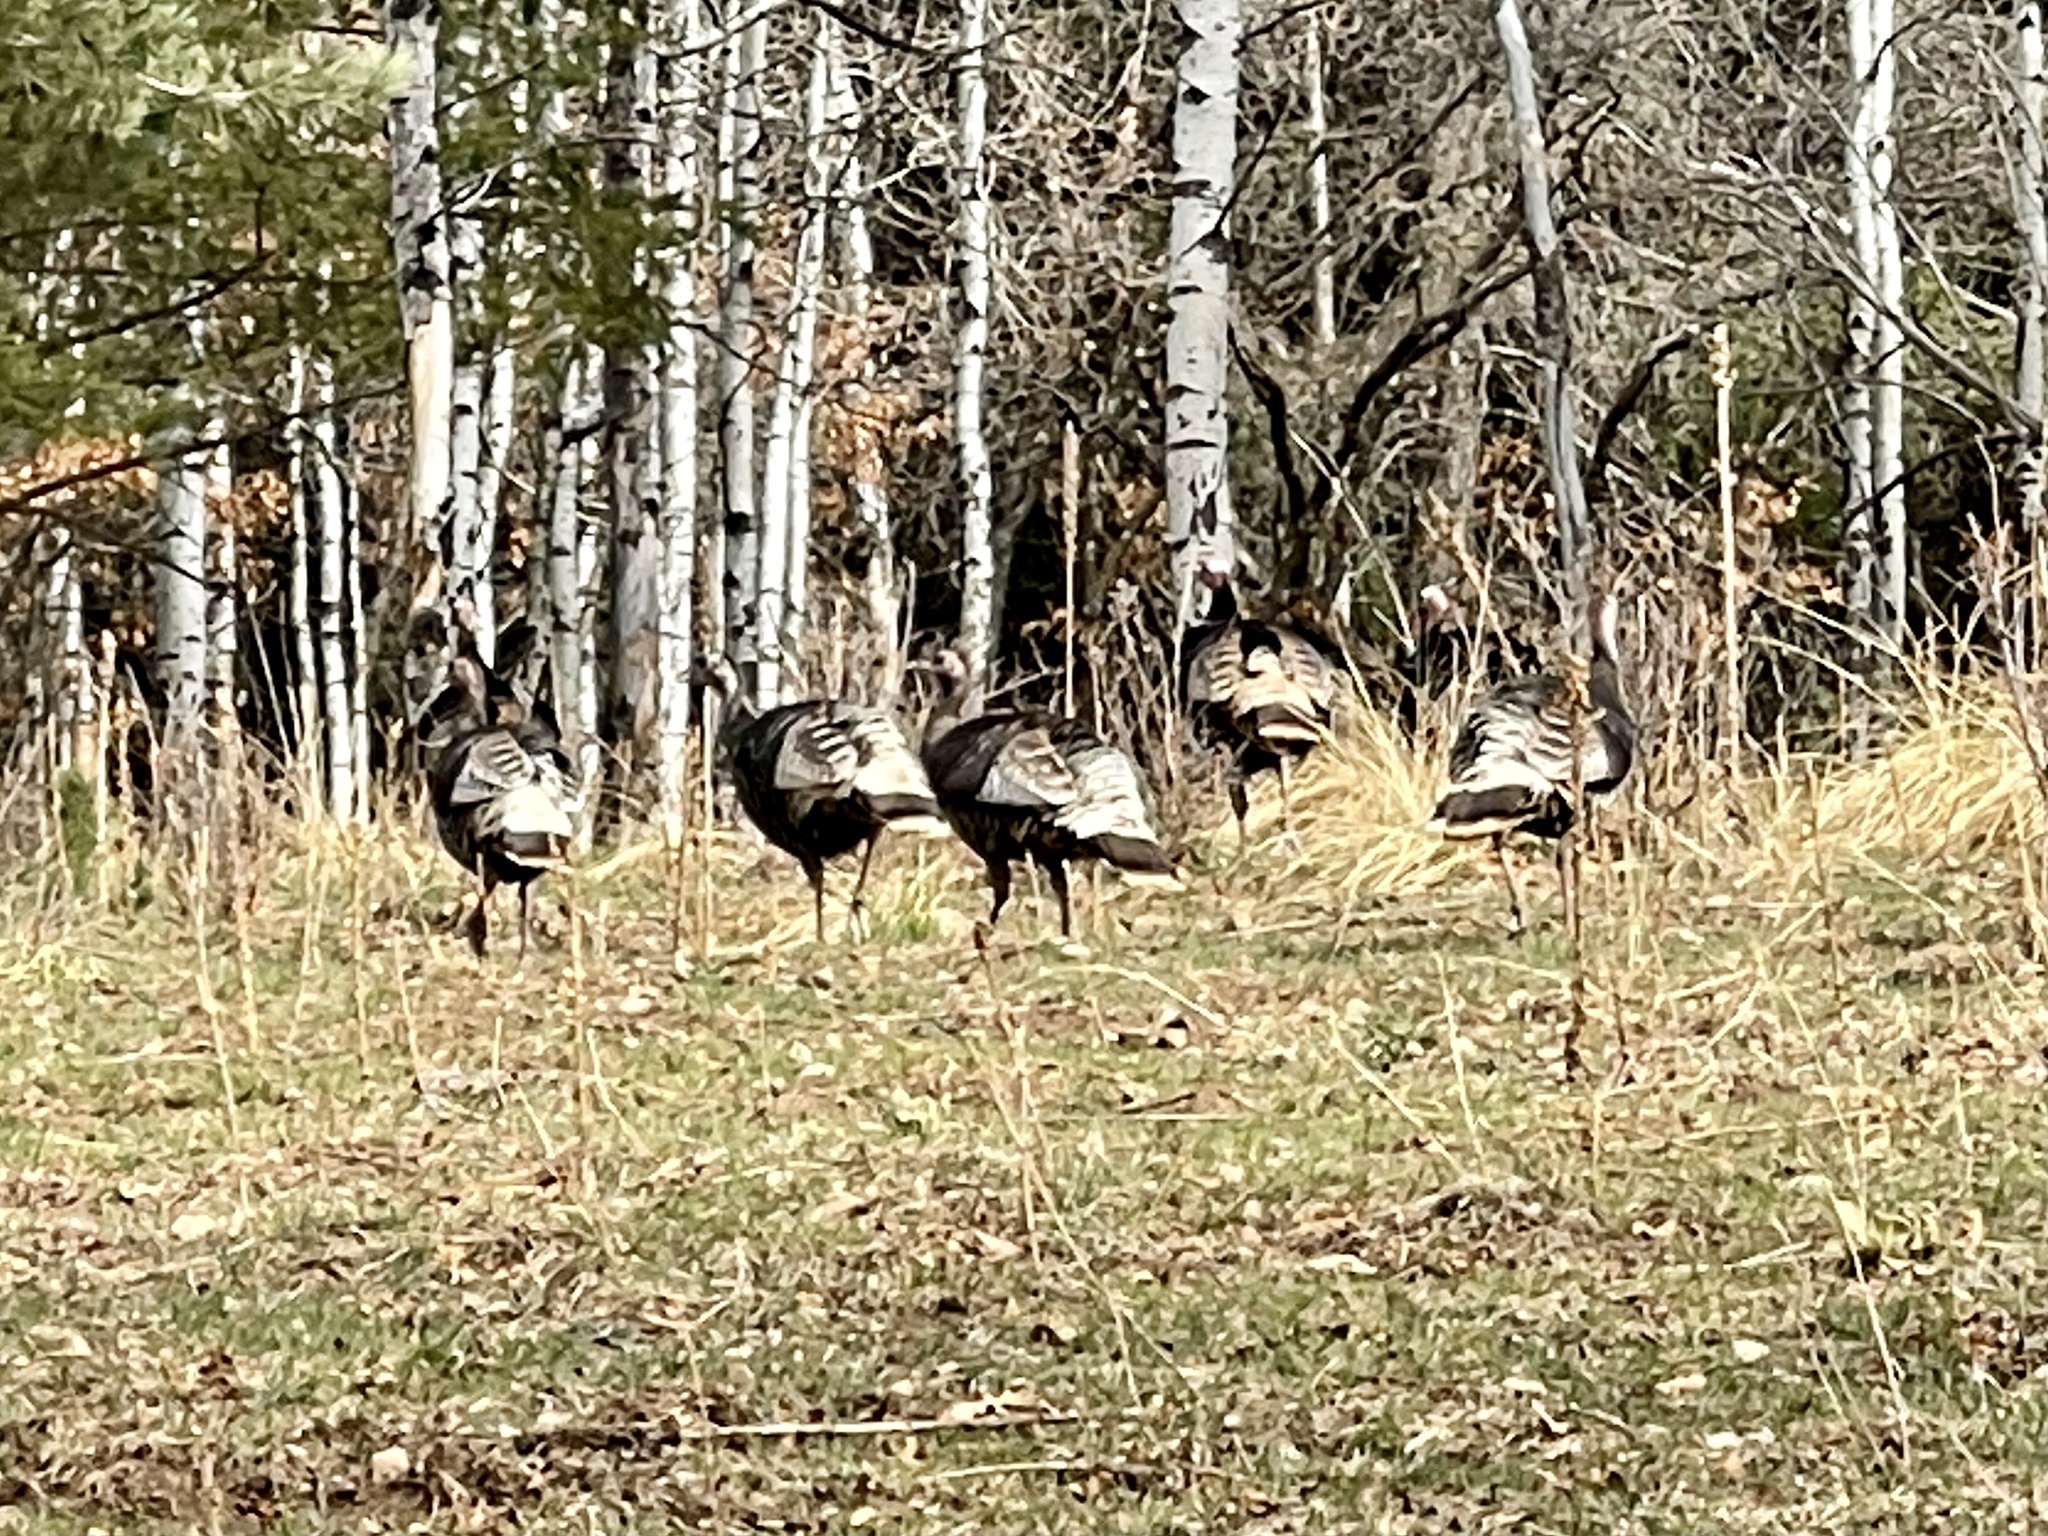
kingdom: Animalia
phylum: Chordata
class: Aves
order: Galliformes
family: Phasianidae
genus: Meleagris
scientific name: Meleagris gallopavo
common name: Wild turkey
